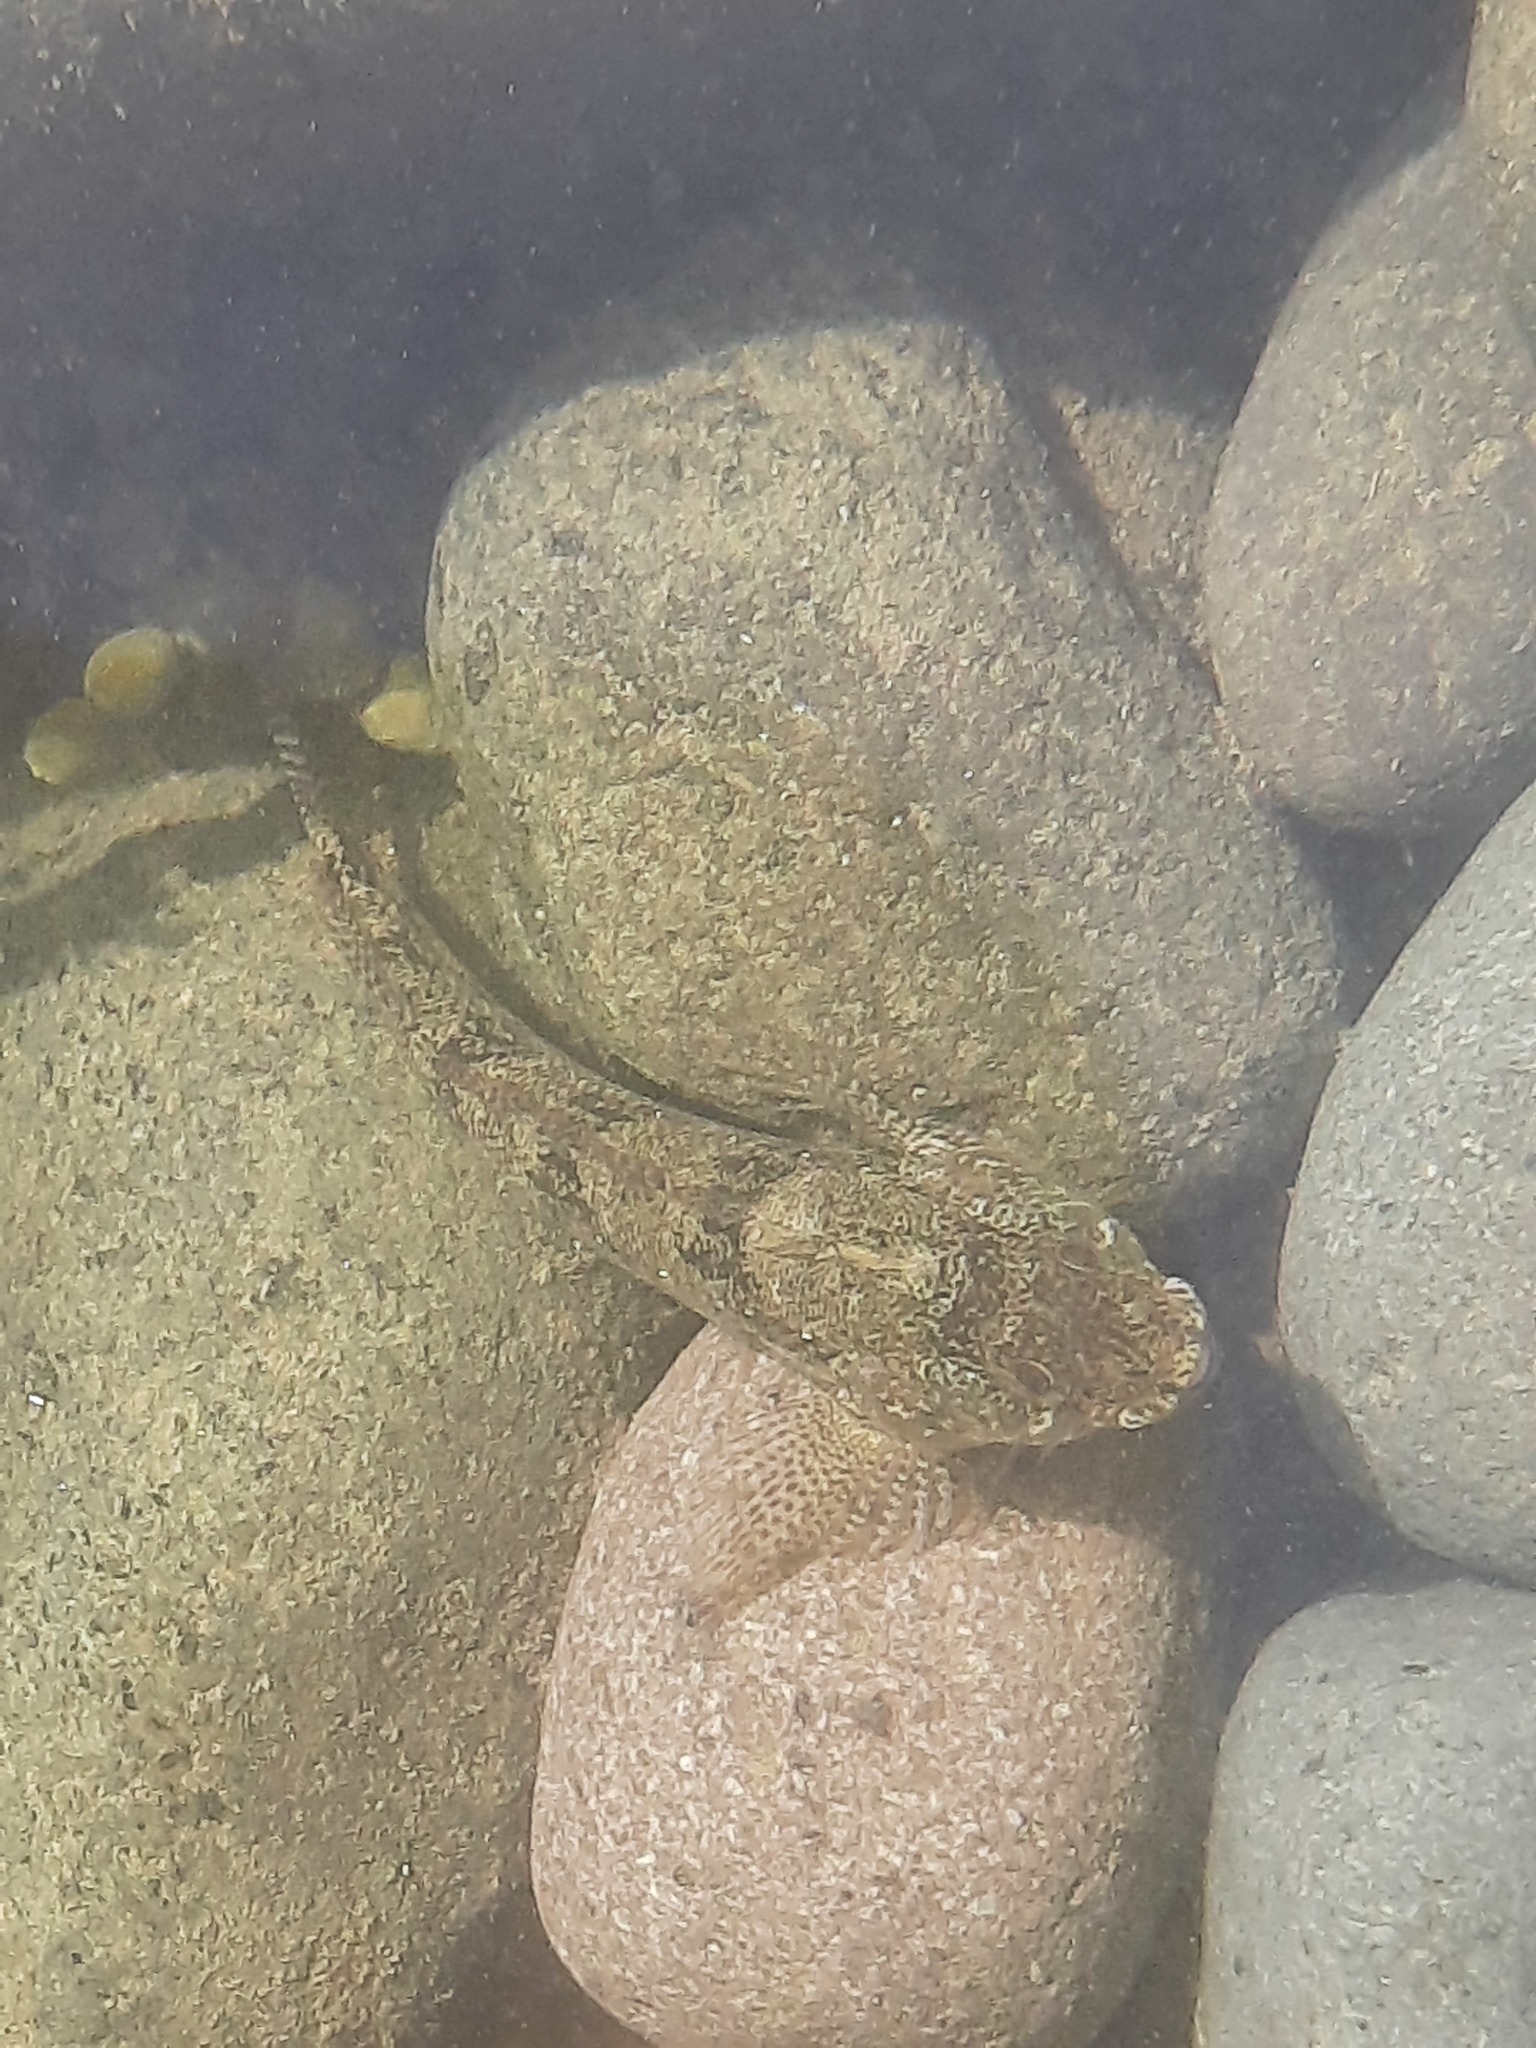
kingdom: Animalia
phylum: Chordata
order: Perciformes
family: Tripterygiidae
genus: Forsterygion
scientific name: Forsterygion gymnotum
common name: Multifid-tentacled robust triplefin
